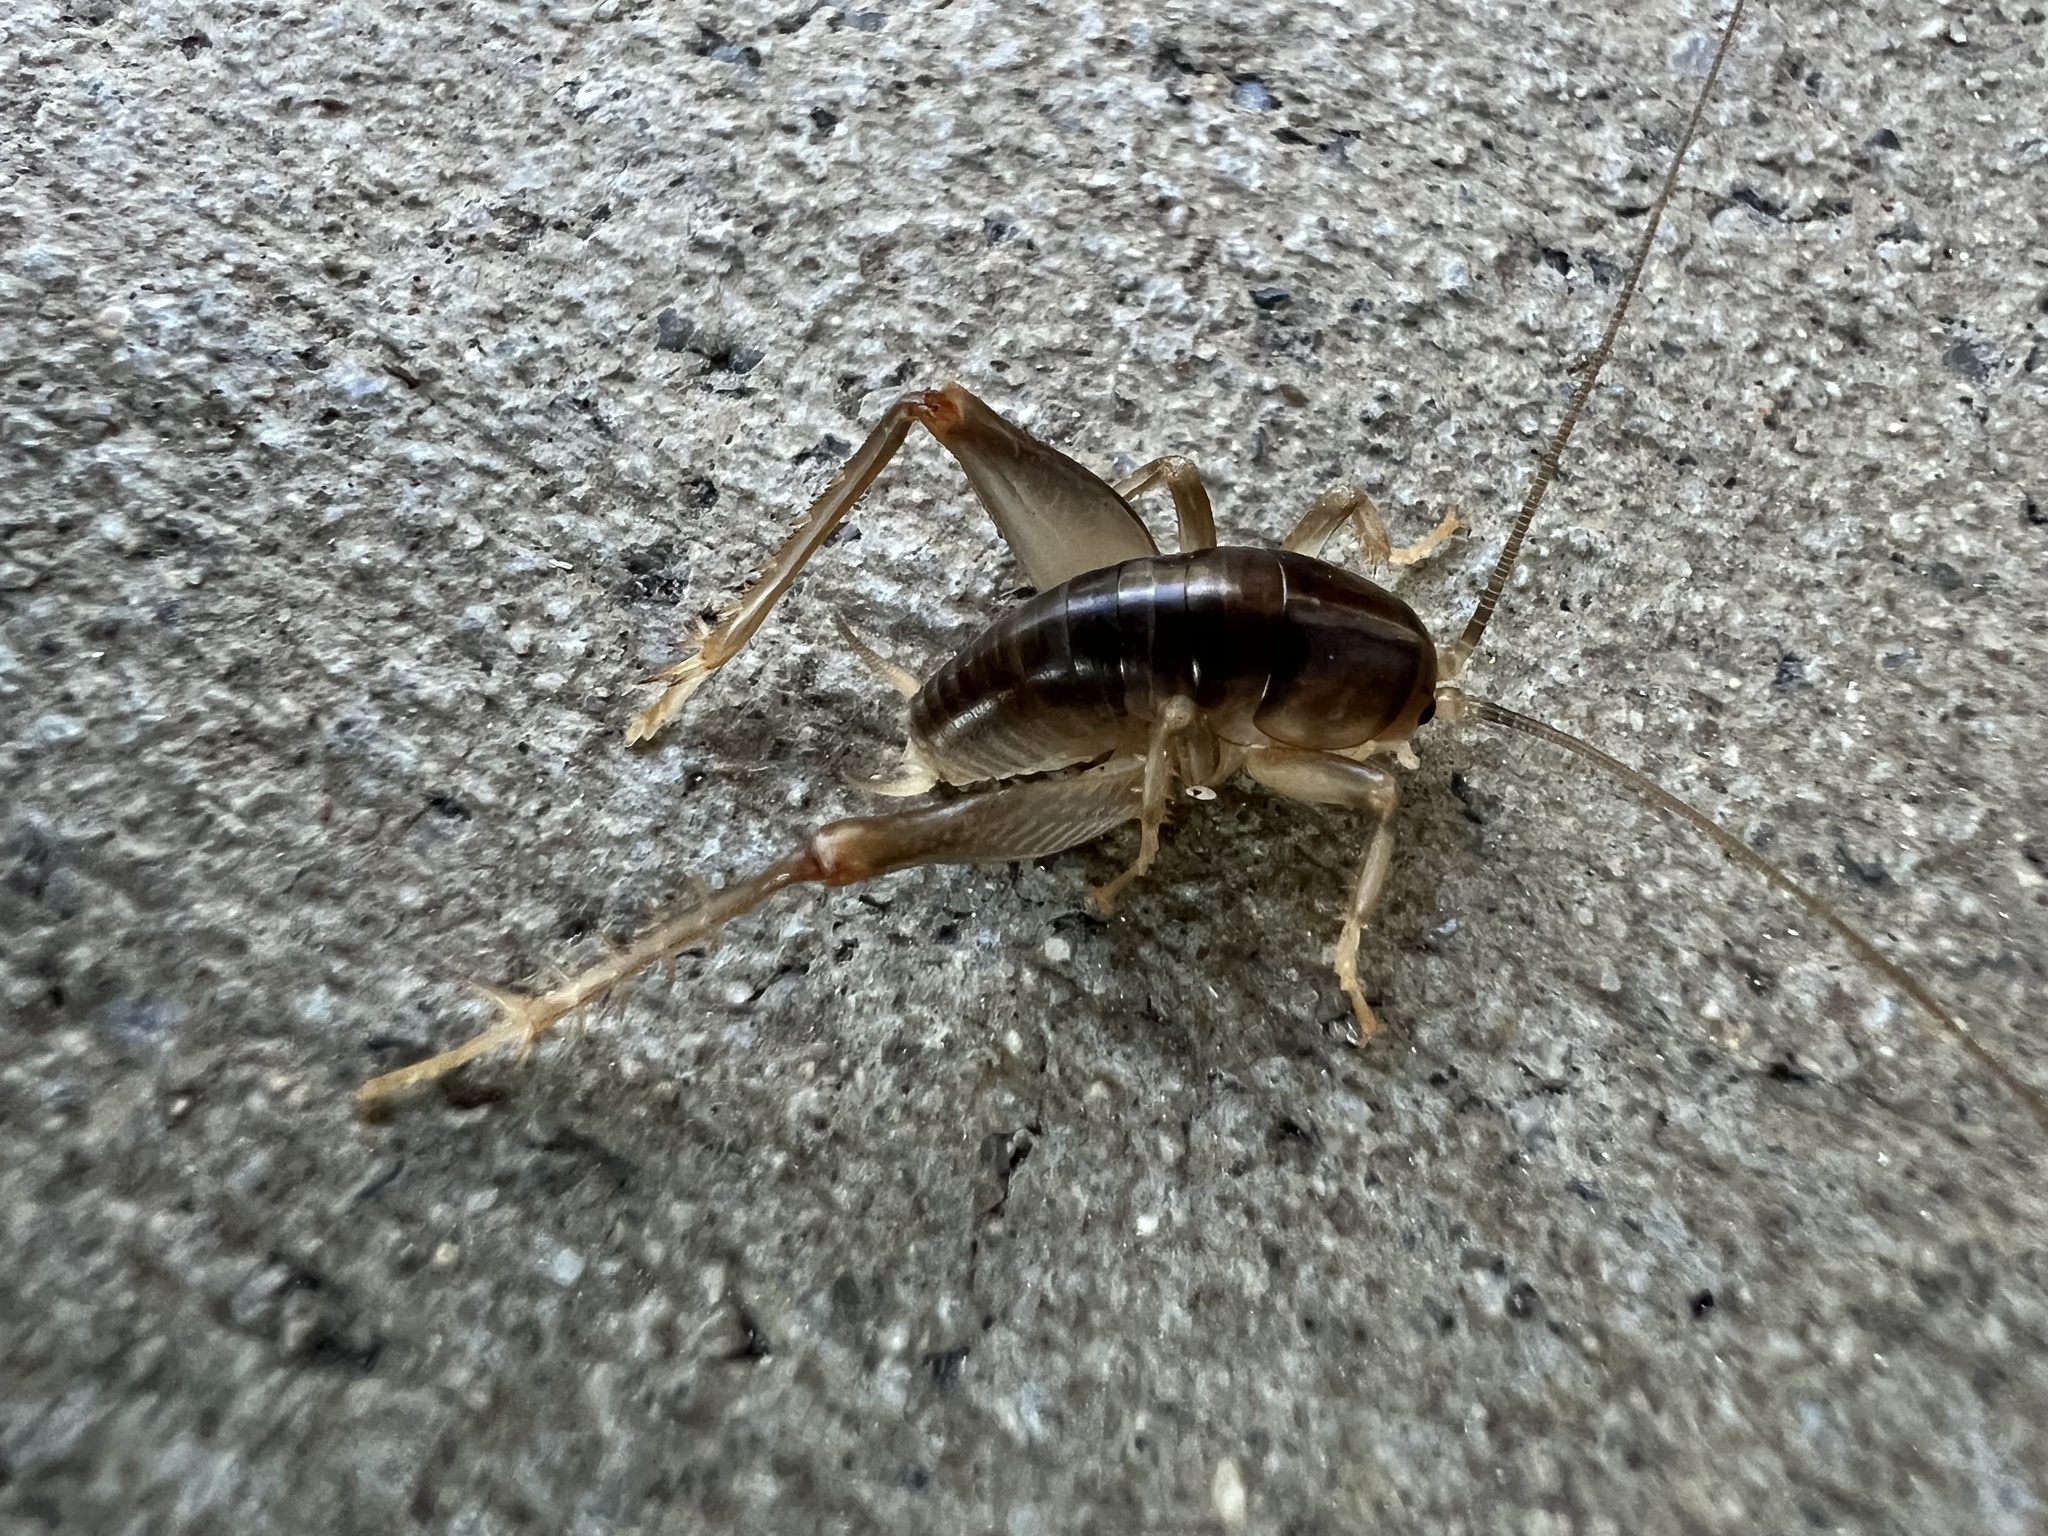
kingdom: Animalia
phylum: Arthropoda
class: Insecta
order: Orthoptera
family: Rhaphidophoridae
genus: Ceuthophilus
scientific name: Ceuthophilus californianus
